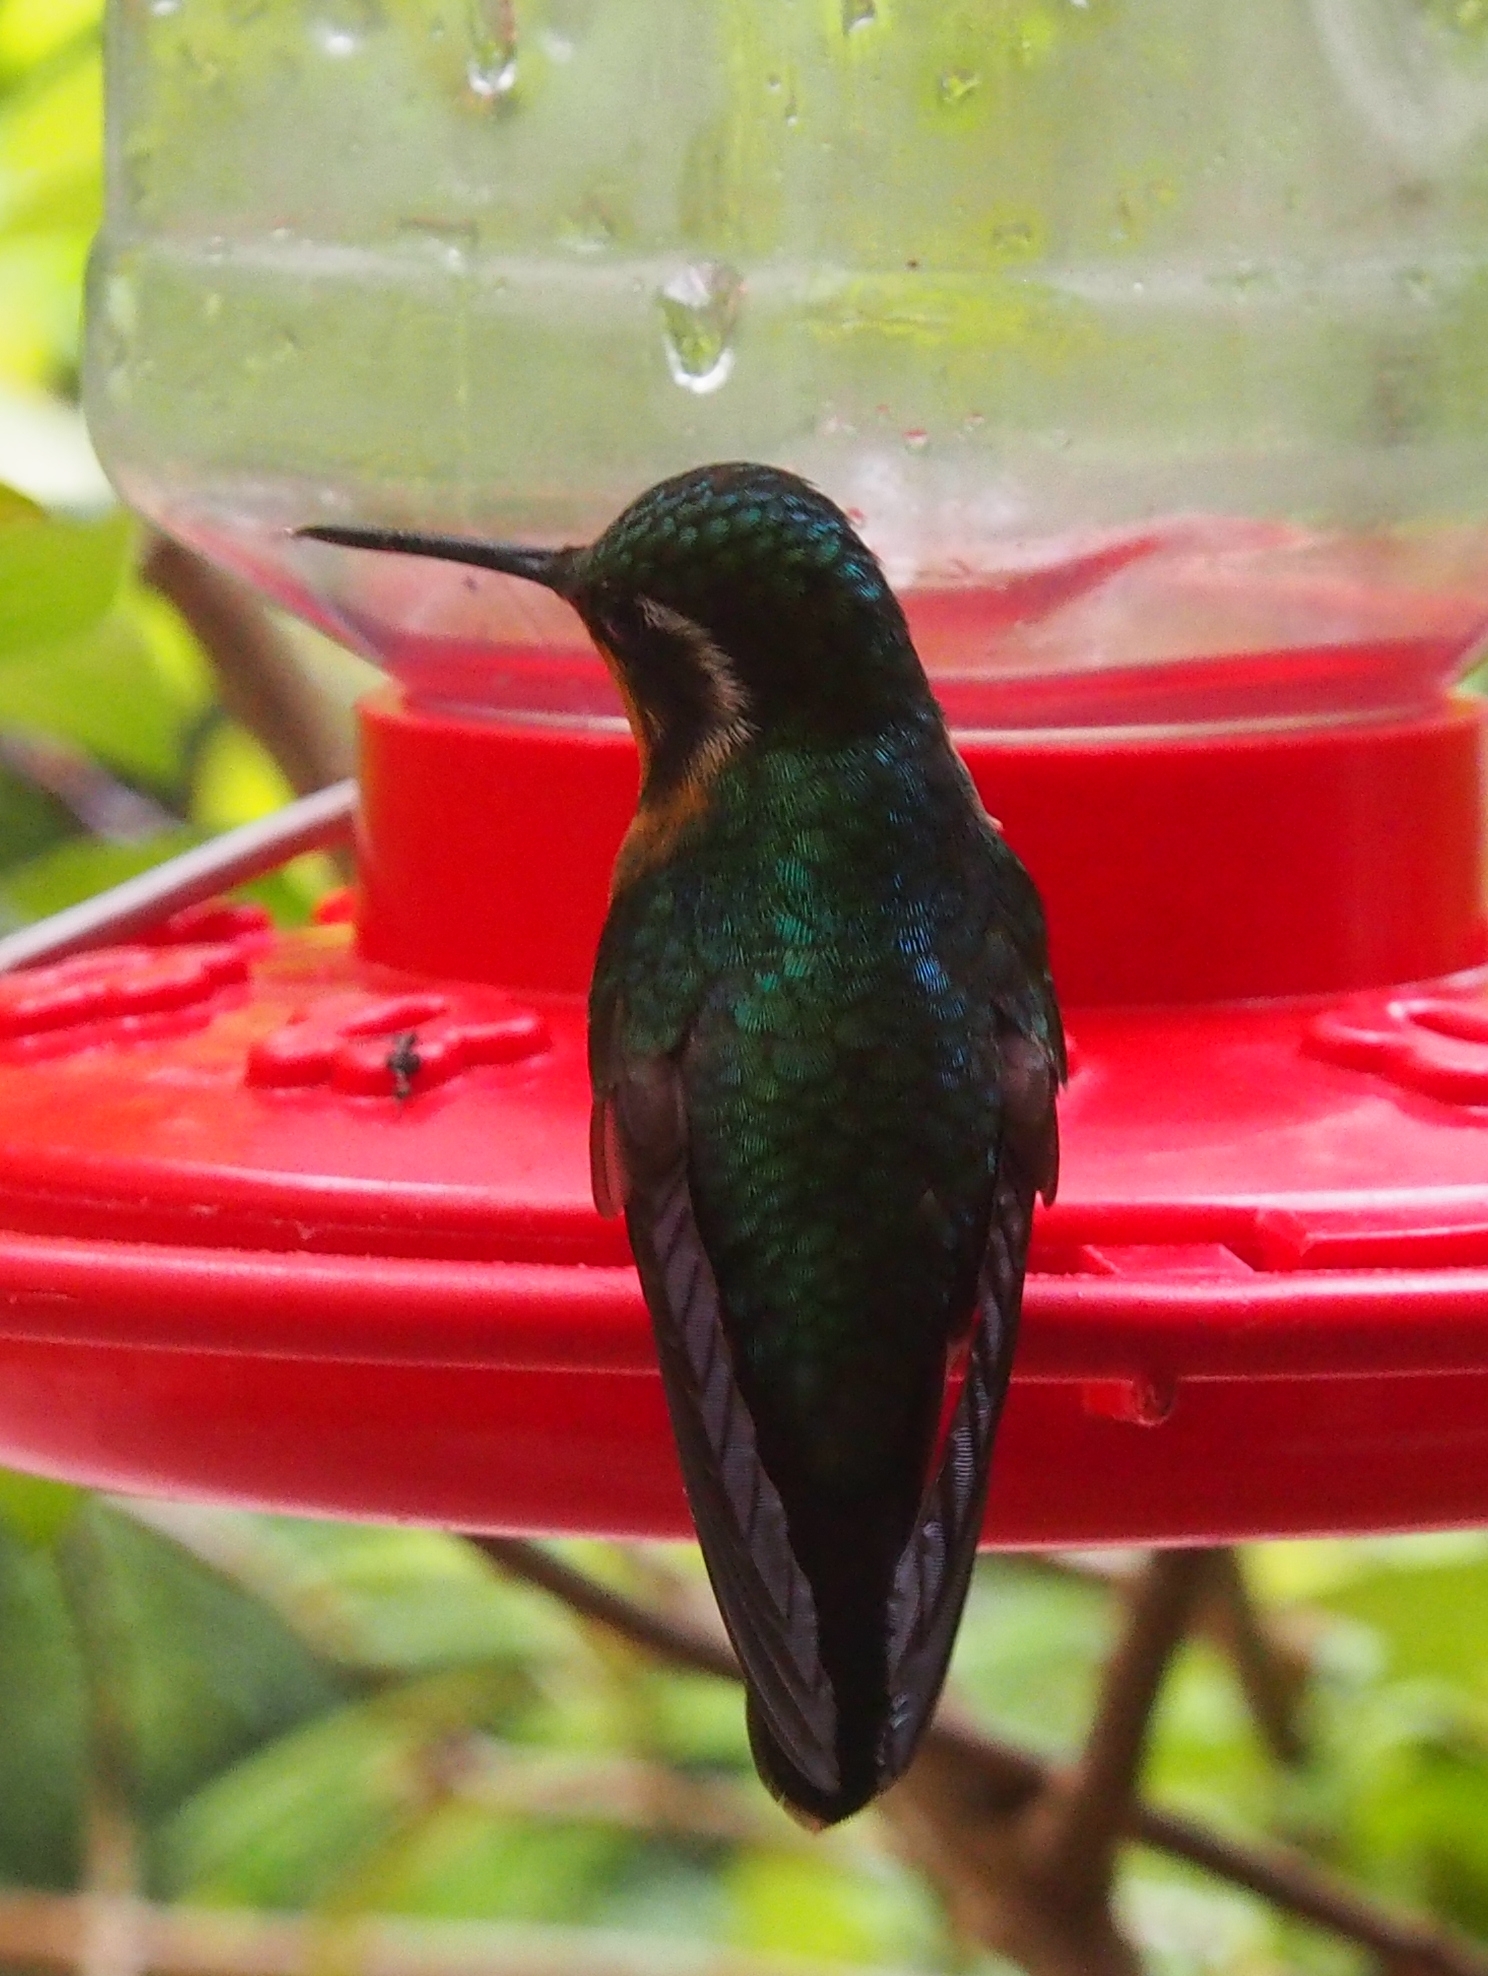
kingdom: Animalia
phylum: Chordata
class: Aves
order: Apodiformes
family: Trochilidae
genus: Lampornis
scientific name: Lampornis calolaemus
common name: Purple-throated mountain-gem
